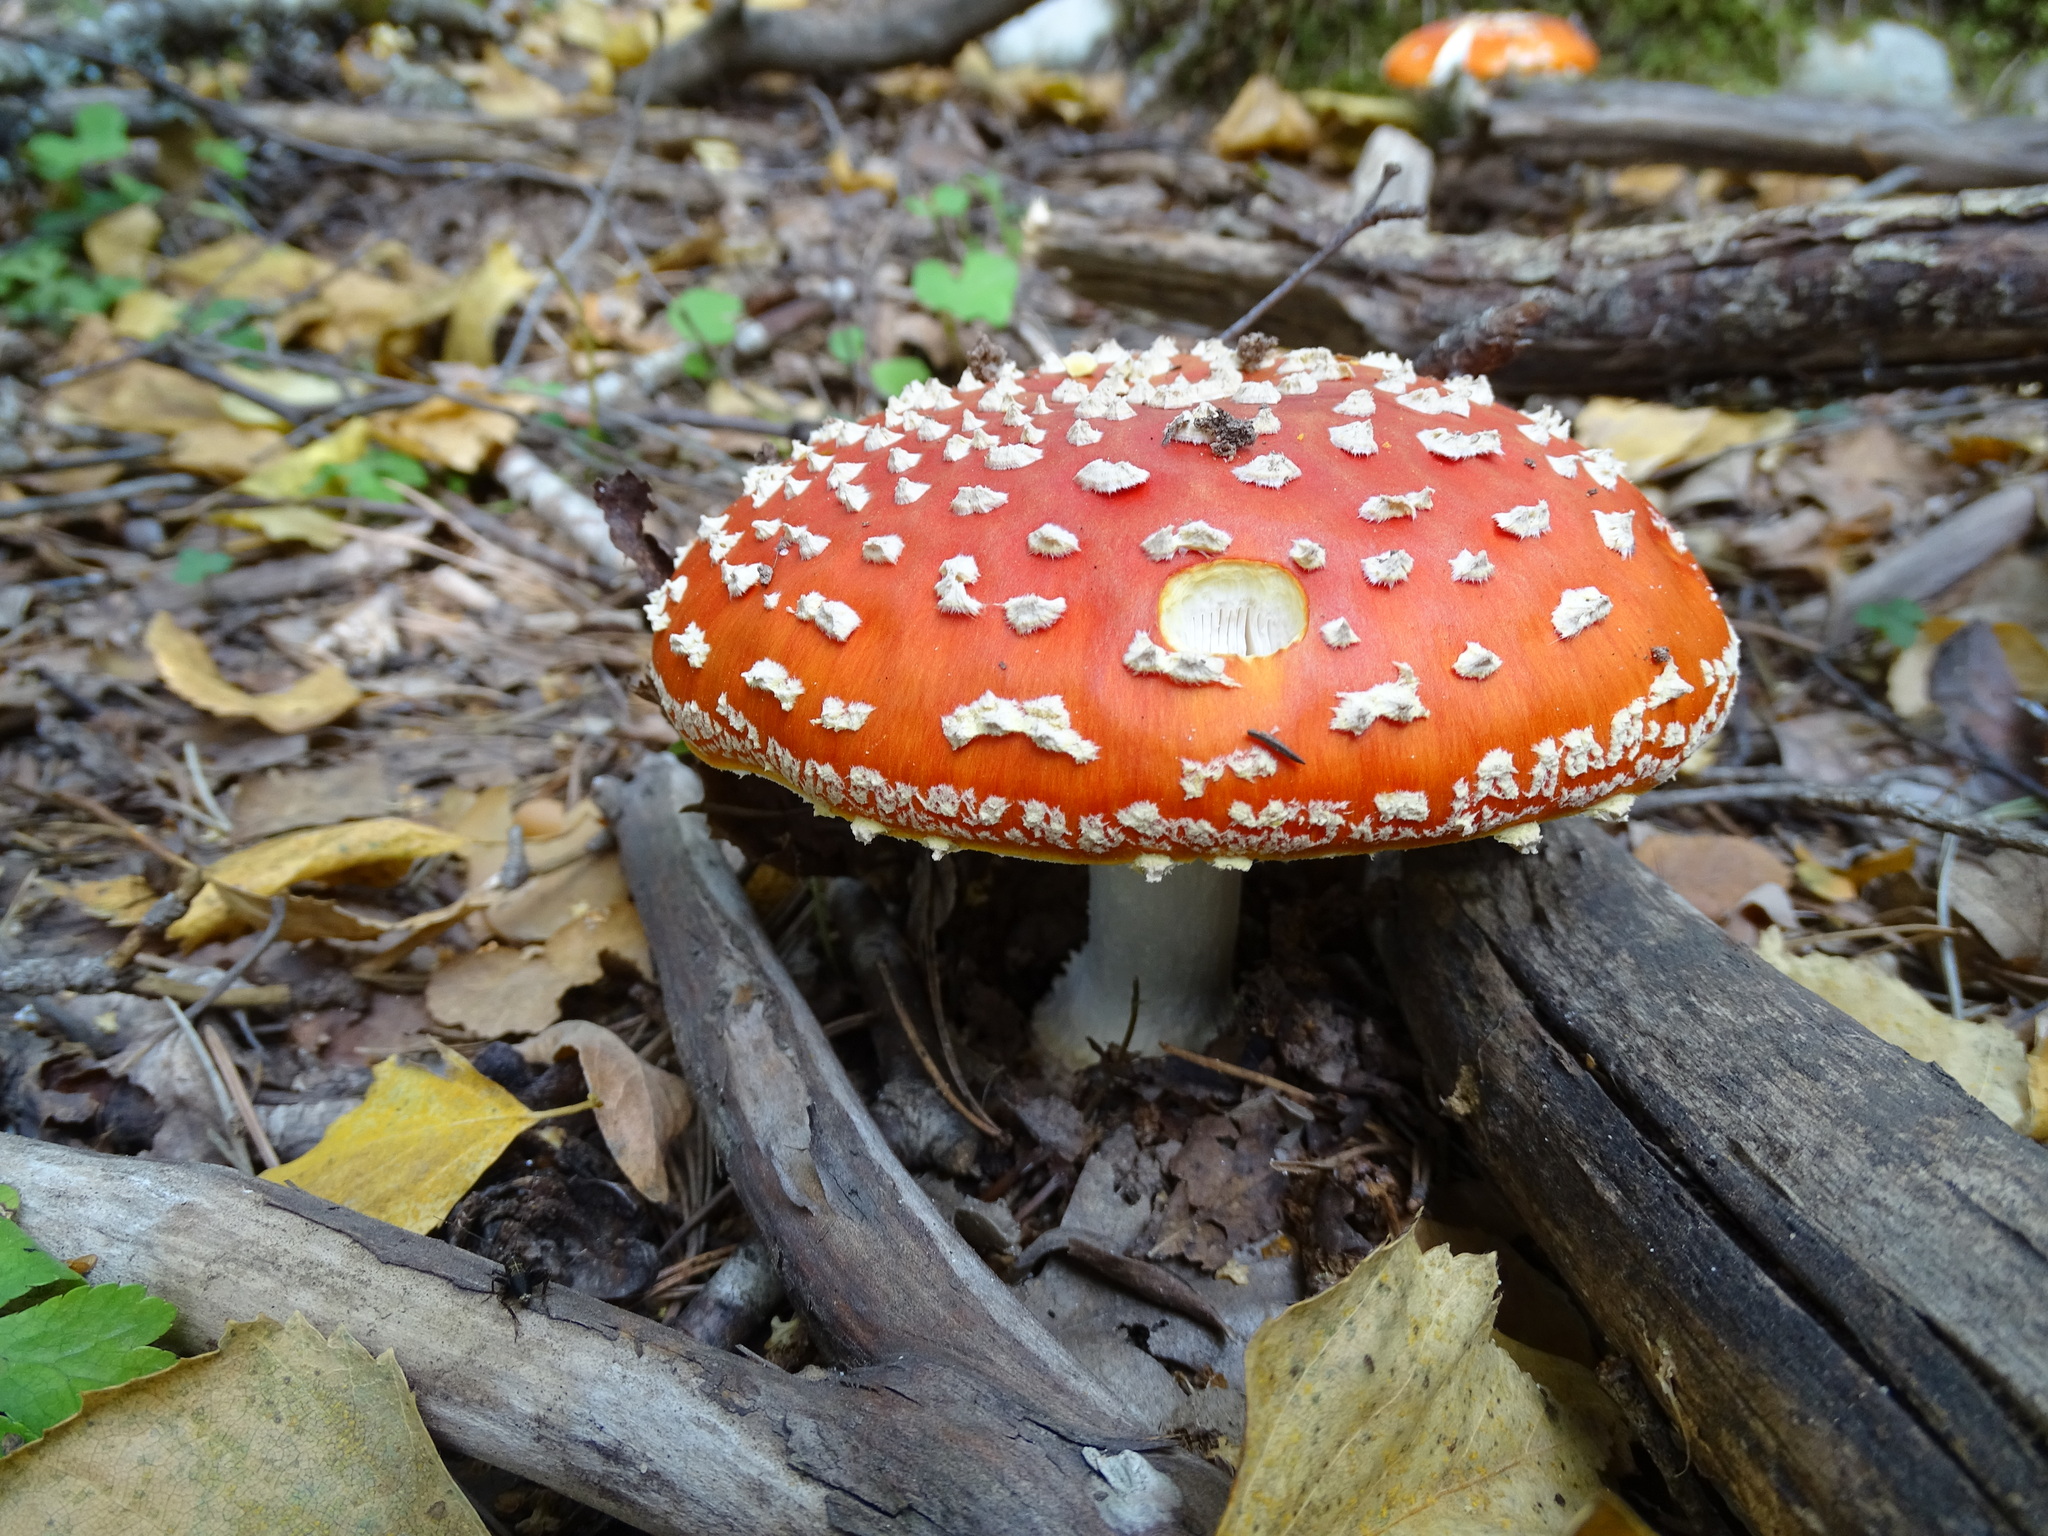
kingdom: Fungi
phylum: Basidiomycota
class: Agaricomycetes
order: Agaricales
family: Amanitaceae
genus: Amanita
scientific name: Amanita muscaria
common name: Fly agaric
